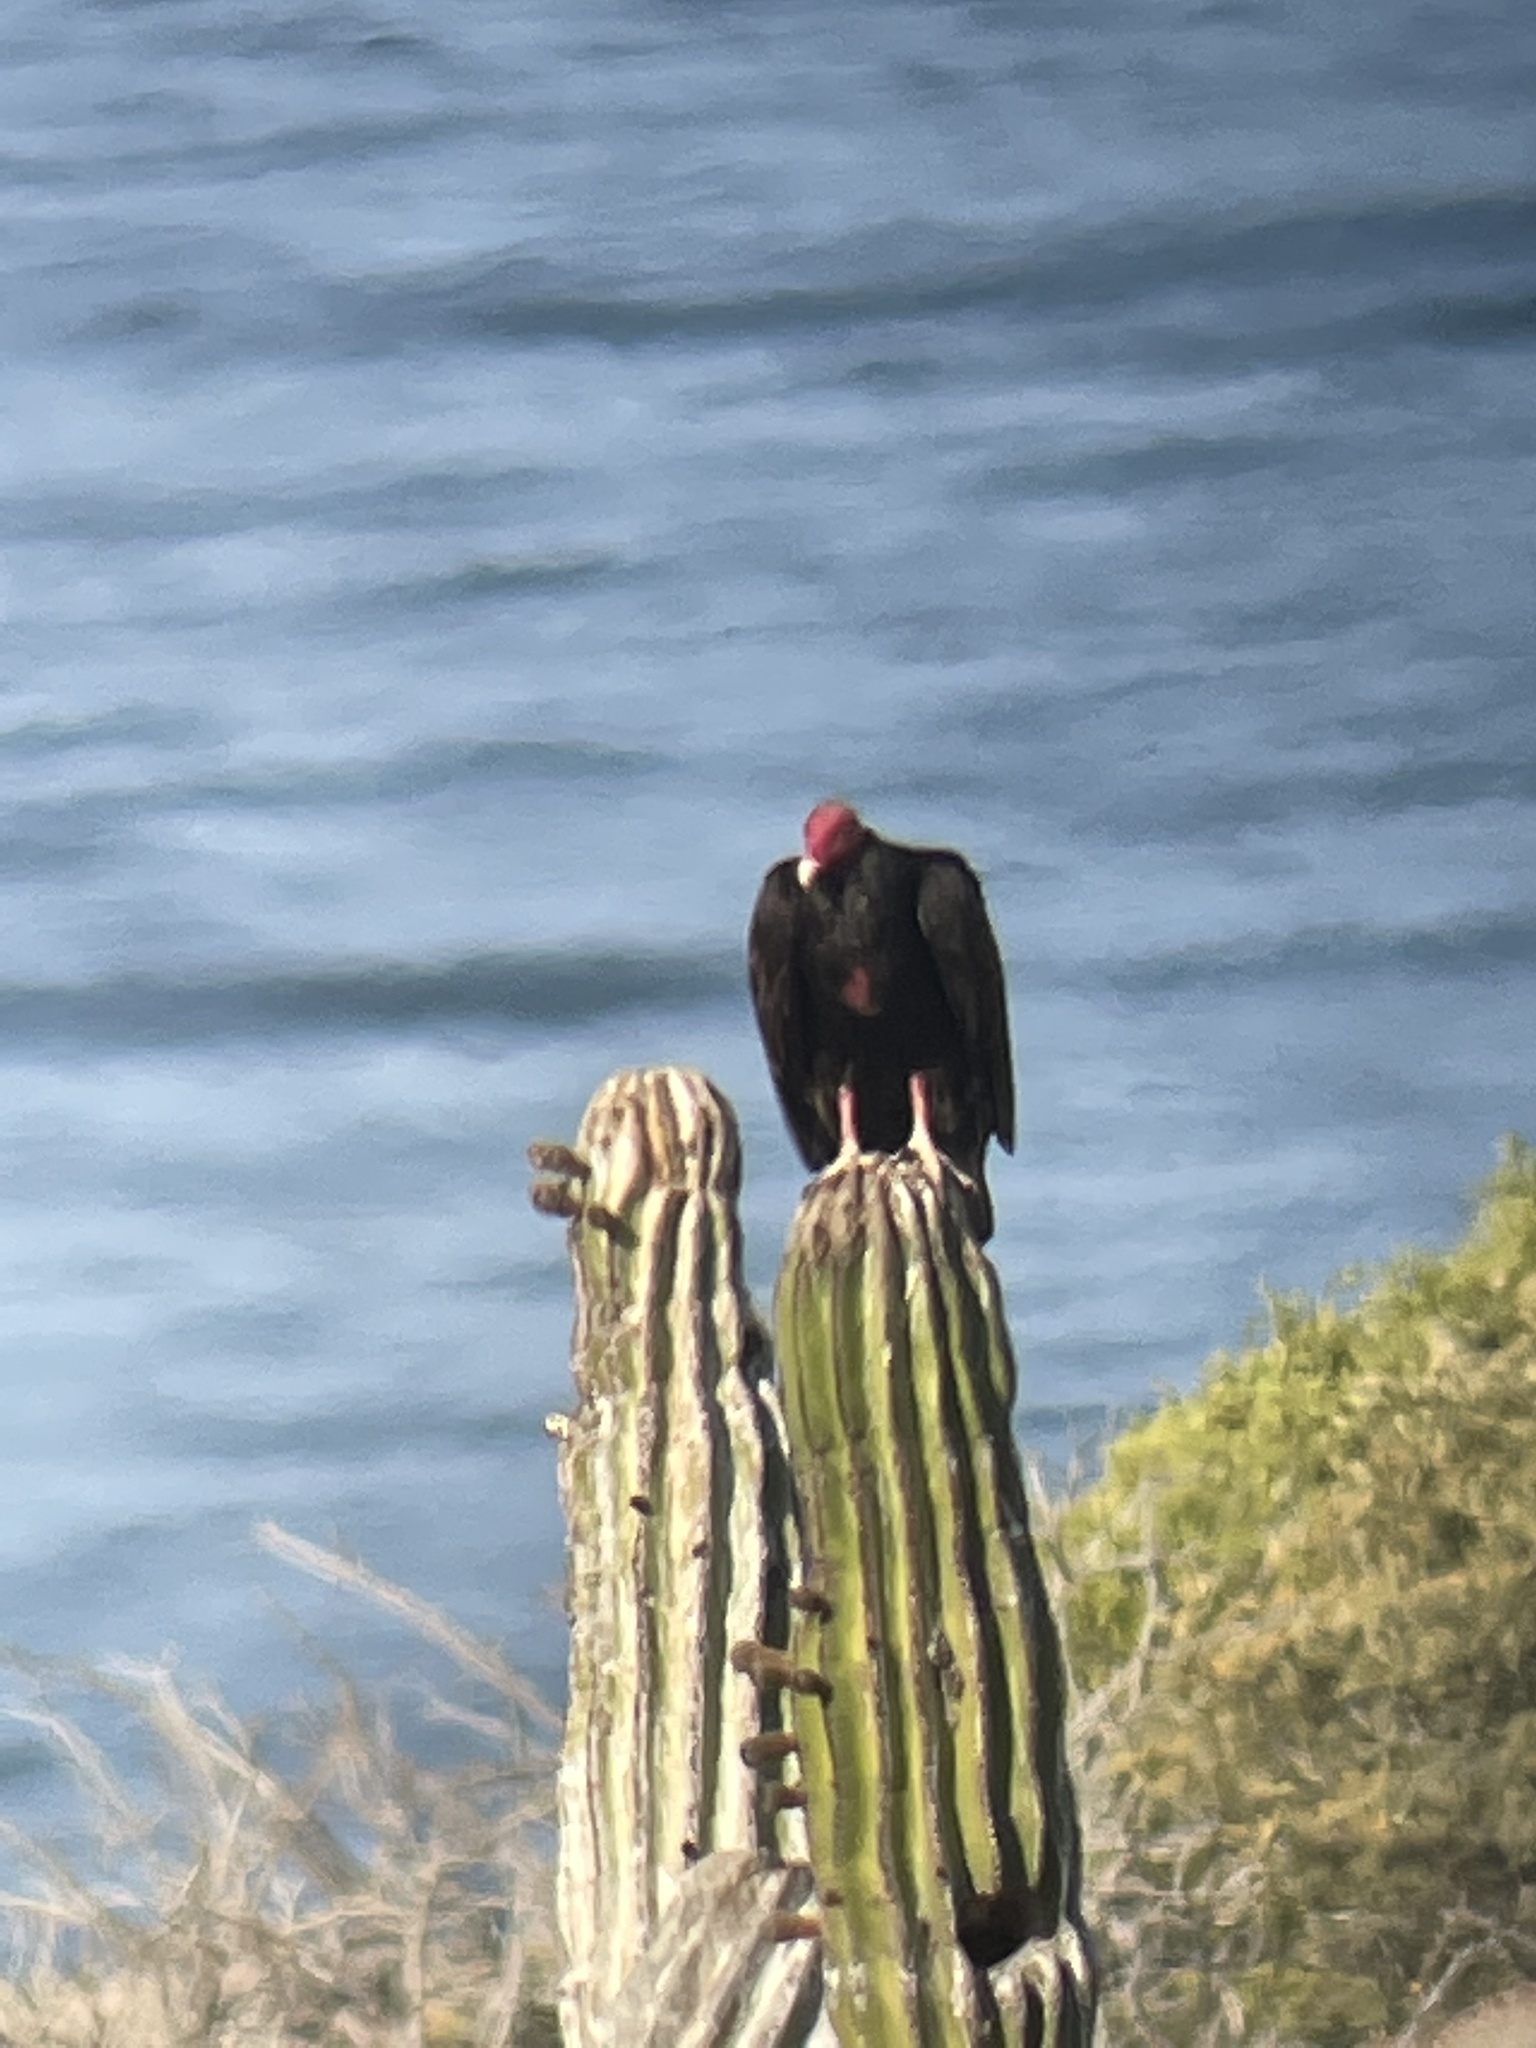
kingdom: Animalia
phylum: Chordata
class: Aves
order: Accipitriformes
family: Cathartidae
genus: Cathartes
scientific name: Cathartes aura
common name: Turkey vulture
